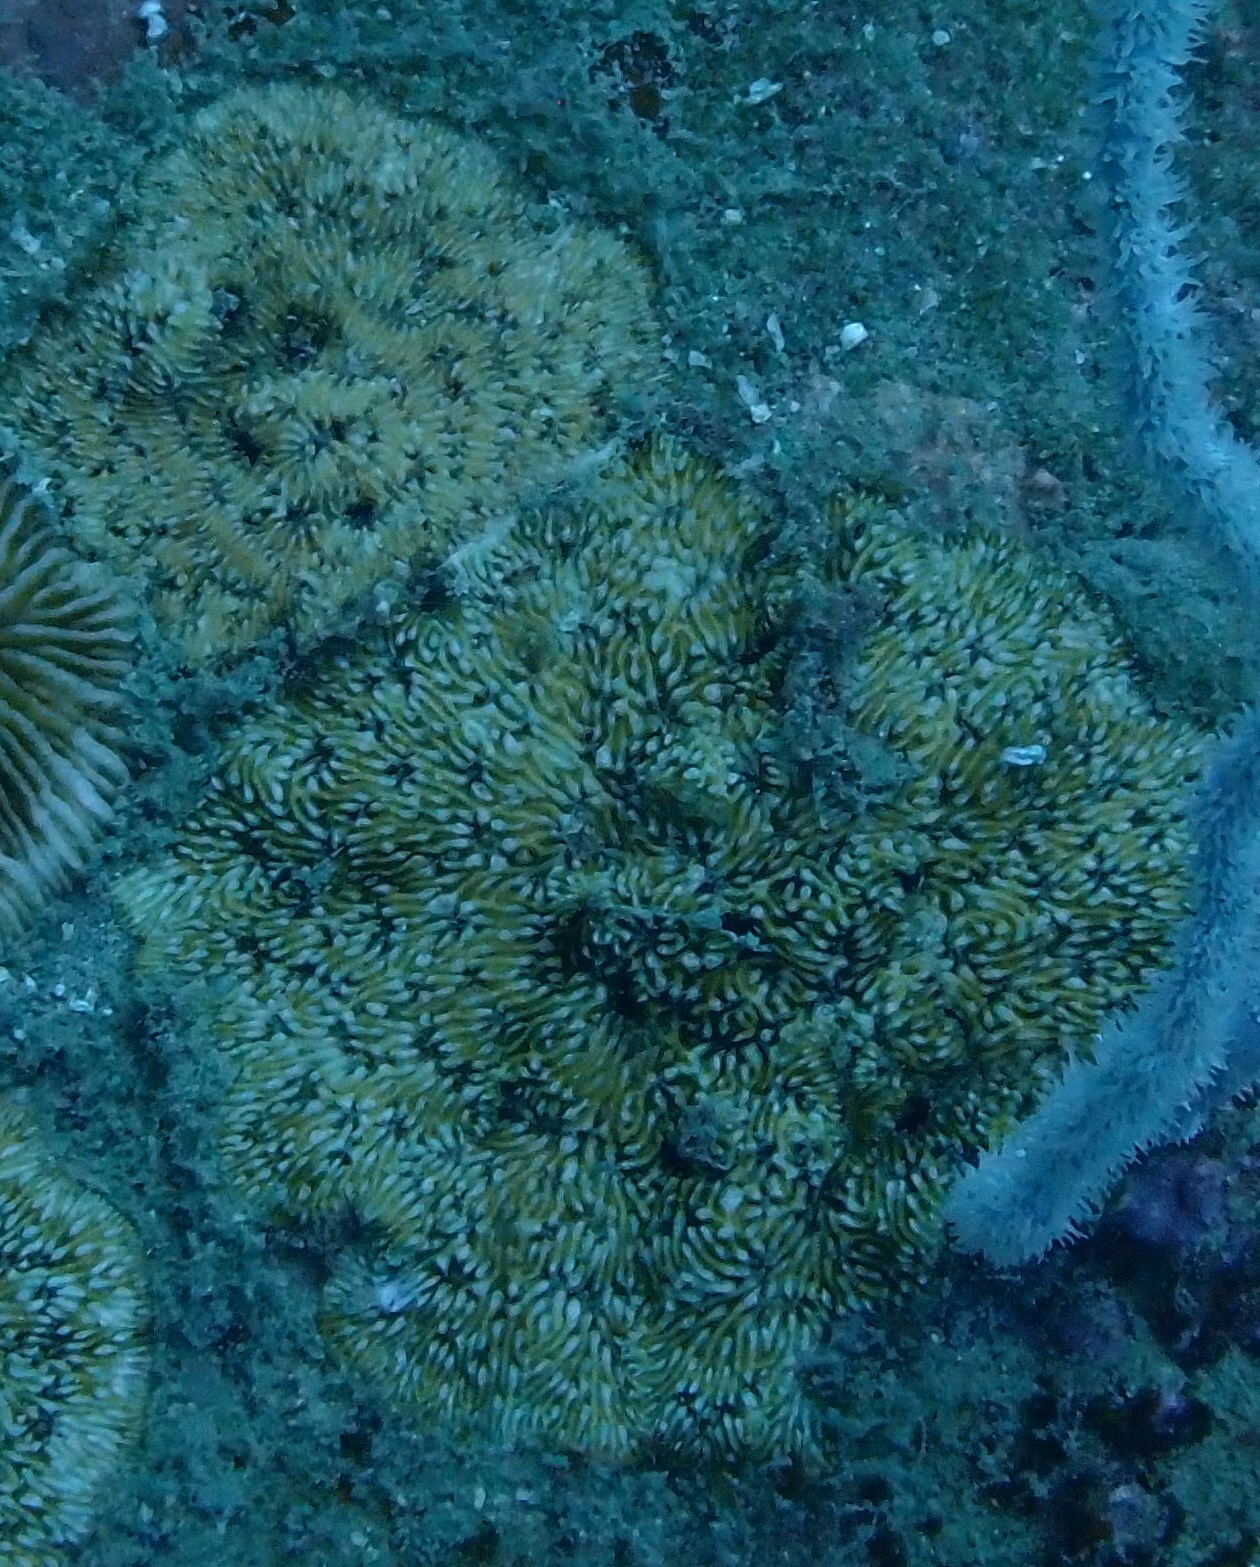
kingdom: Animalia
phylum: Cnidaria
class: Anthozoa
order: Scleractinia
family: Fungiidae
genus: Cycloseris
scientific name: Cycloseris mokai
